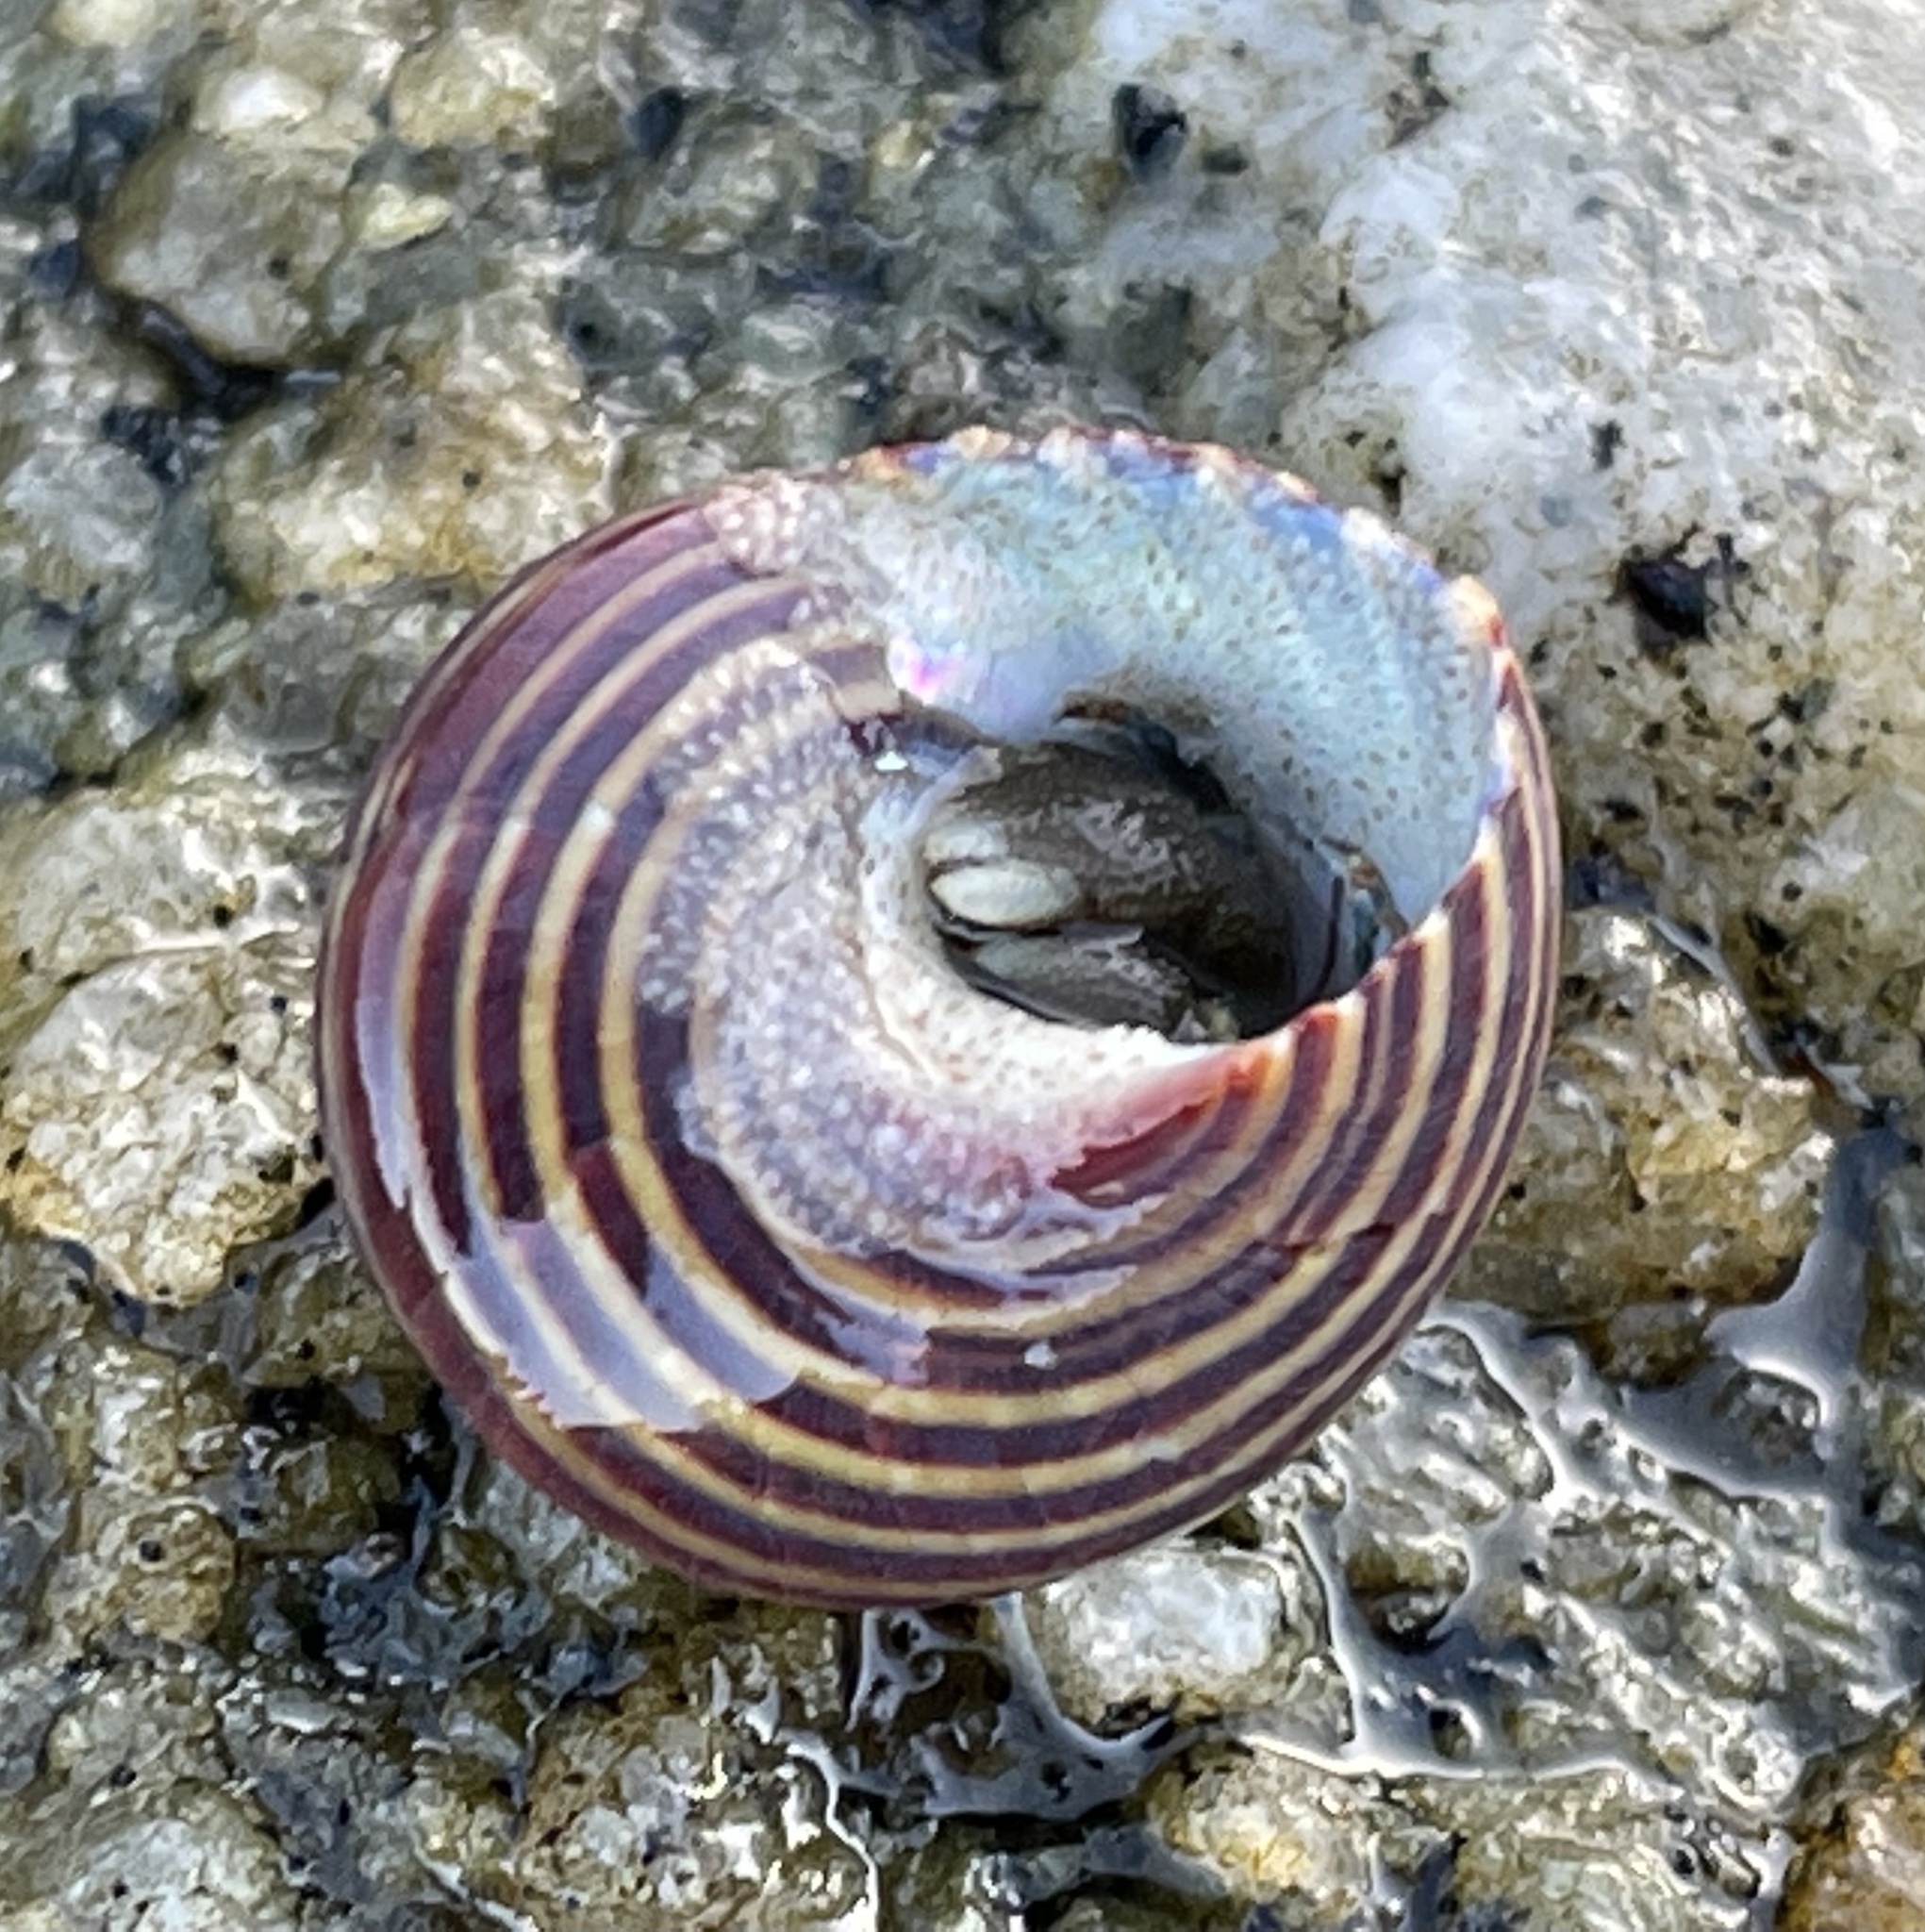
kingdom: Animalia
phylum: Mollusca
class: Gastropoda
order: Trochida
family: Calliostomatidae
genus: Calliostoma
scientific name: Calliostoma ligatum
